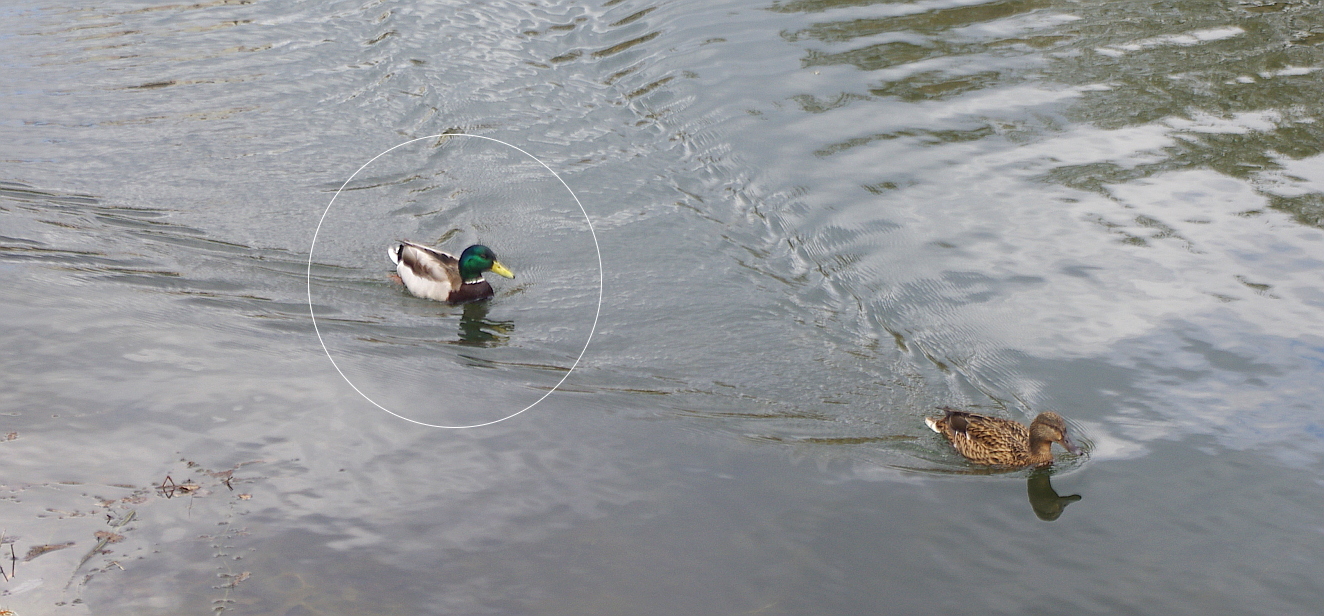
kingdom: Animalia
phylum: Chordata
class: Aves
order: Anseriformes
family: Anatidae
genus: Anas
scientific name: Anas platyrhynchos
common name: Mallard
